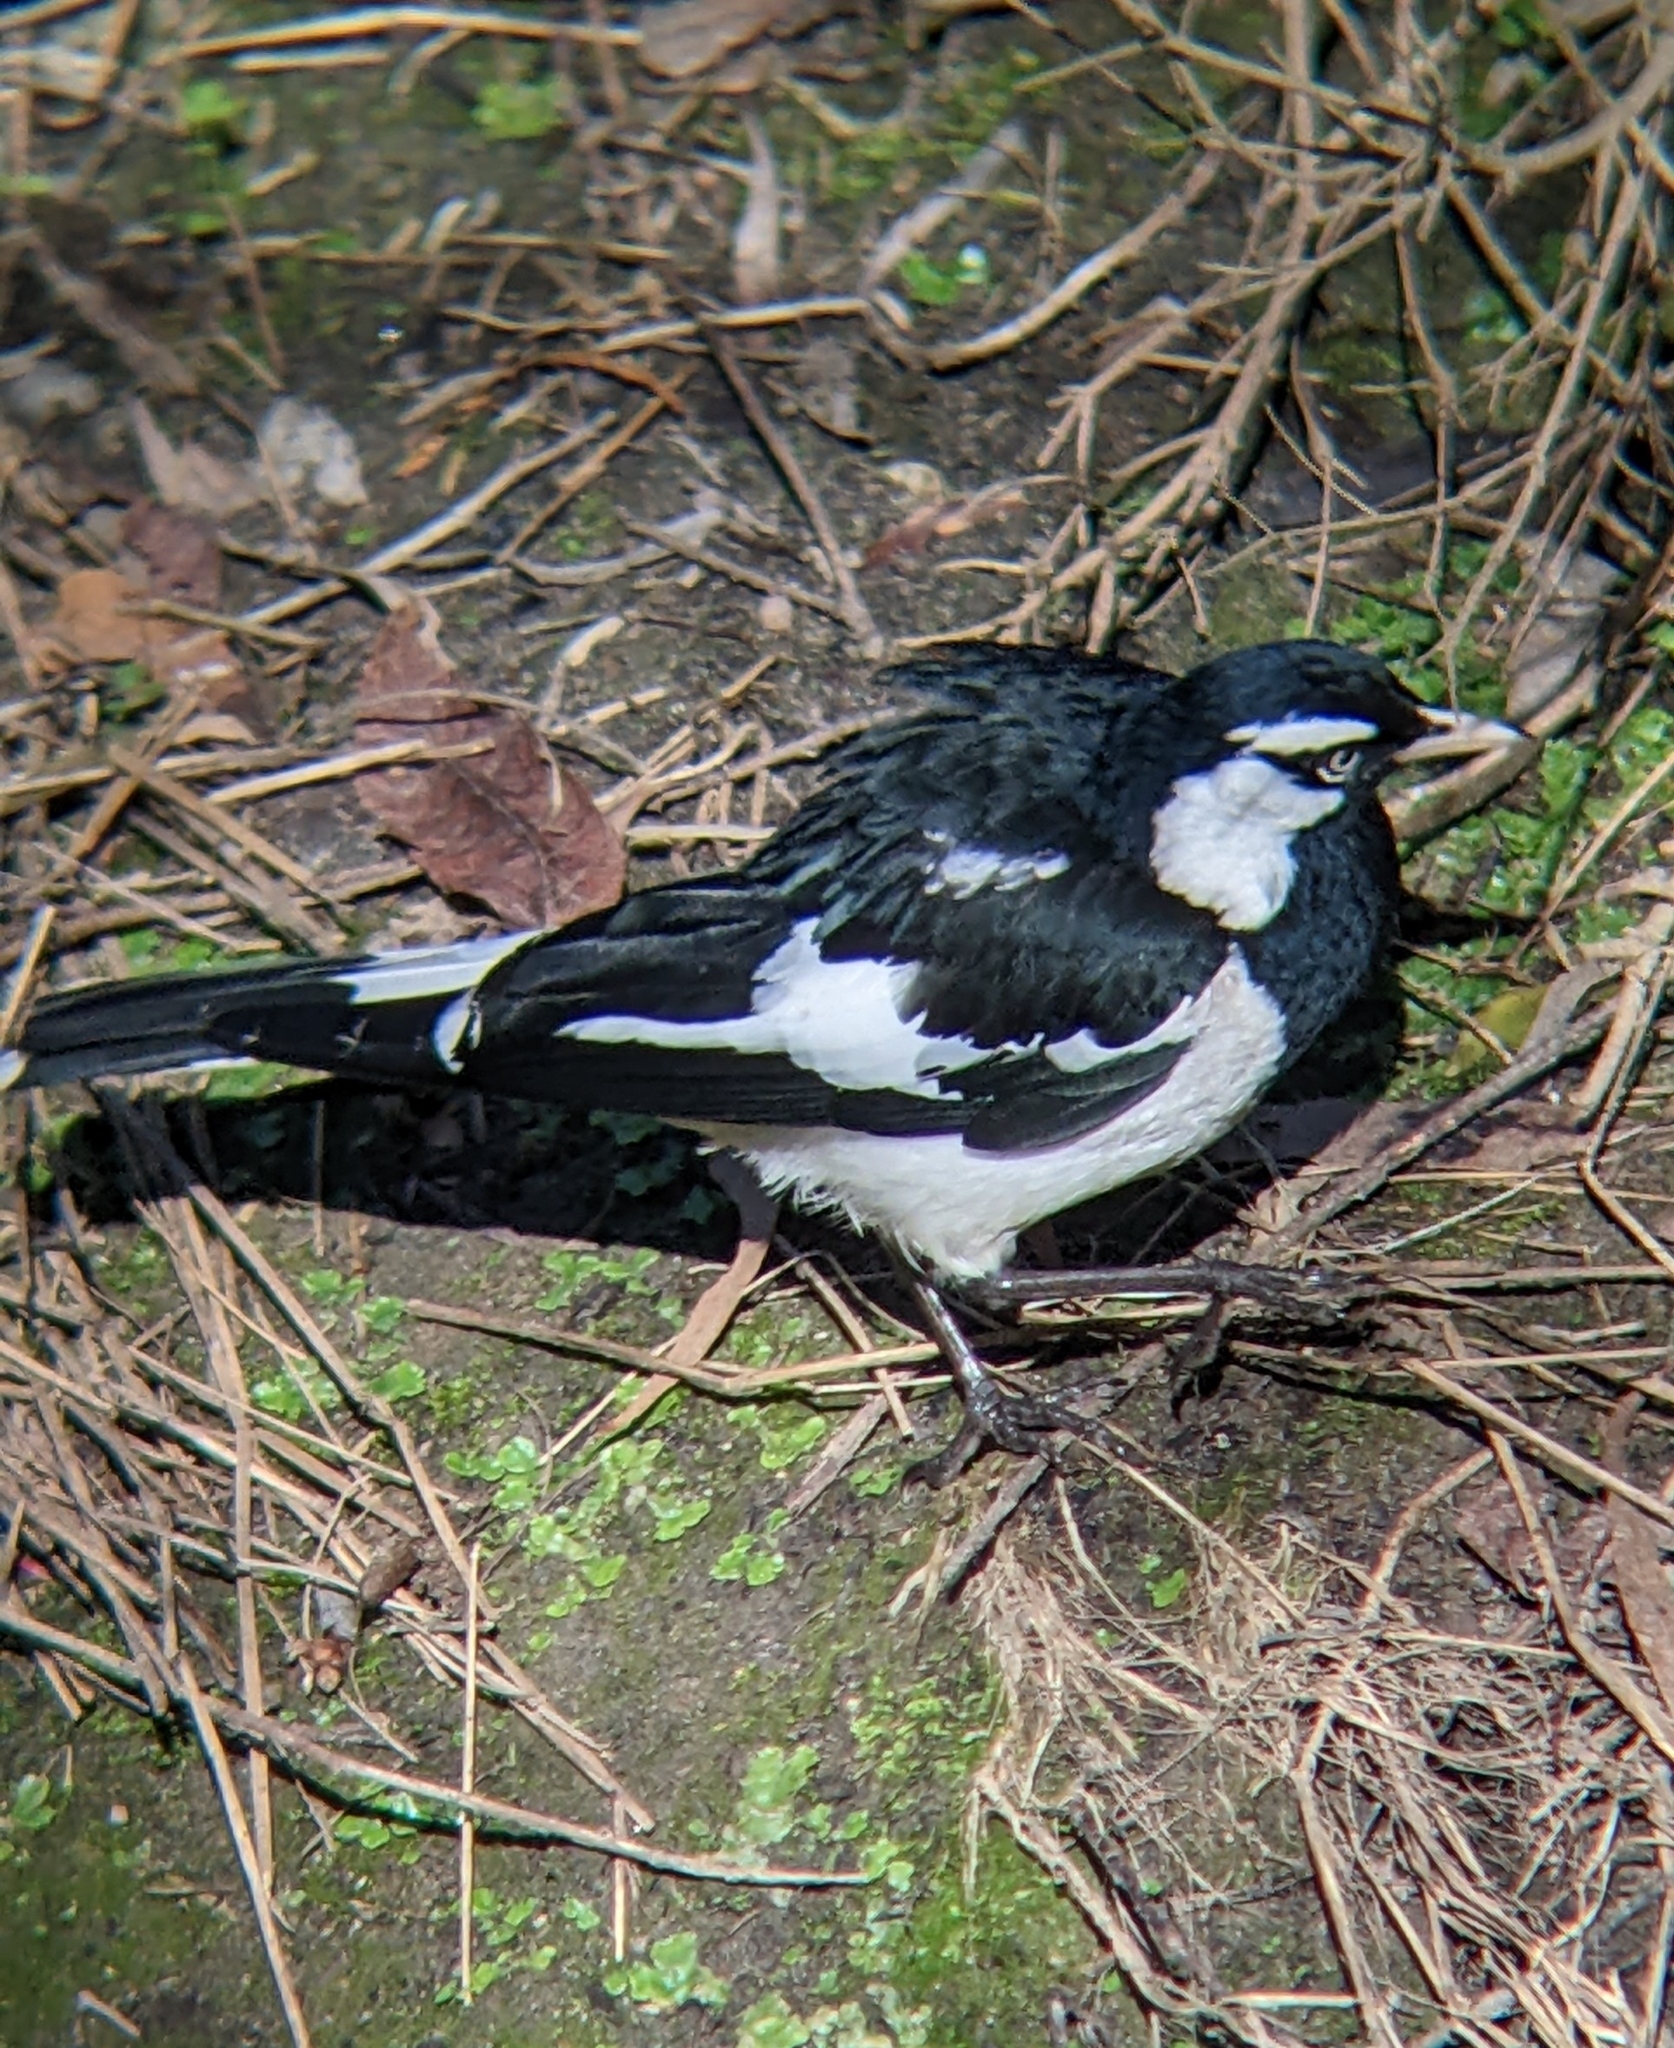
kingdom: Animalia
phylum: Chordata
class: Aves
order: Passeriformes
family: Monarchidae
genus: Grallina
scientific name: Grallina cyanoleuca
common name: Magpie-lark
